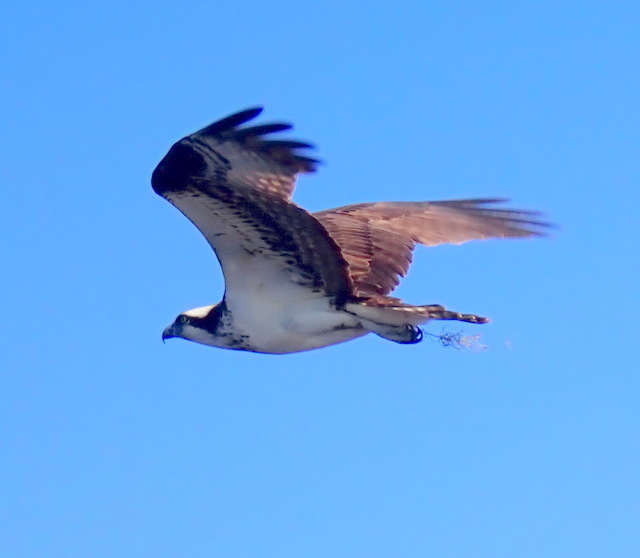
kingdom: Animalia
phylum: Chordata
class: Aves
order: Accipitriformes
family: Pandionidae
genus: Pandion
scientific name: Pandion haliaetus
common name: Osprey
